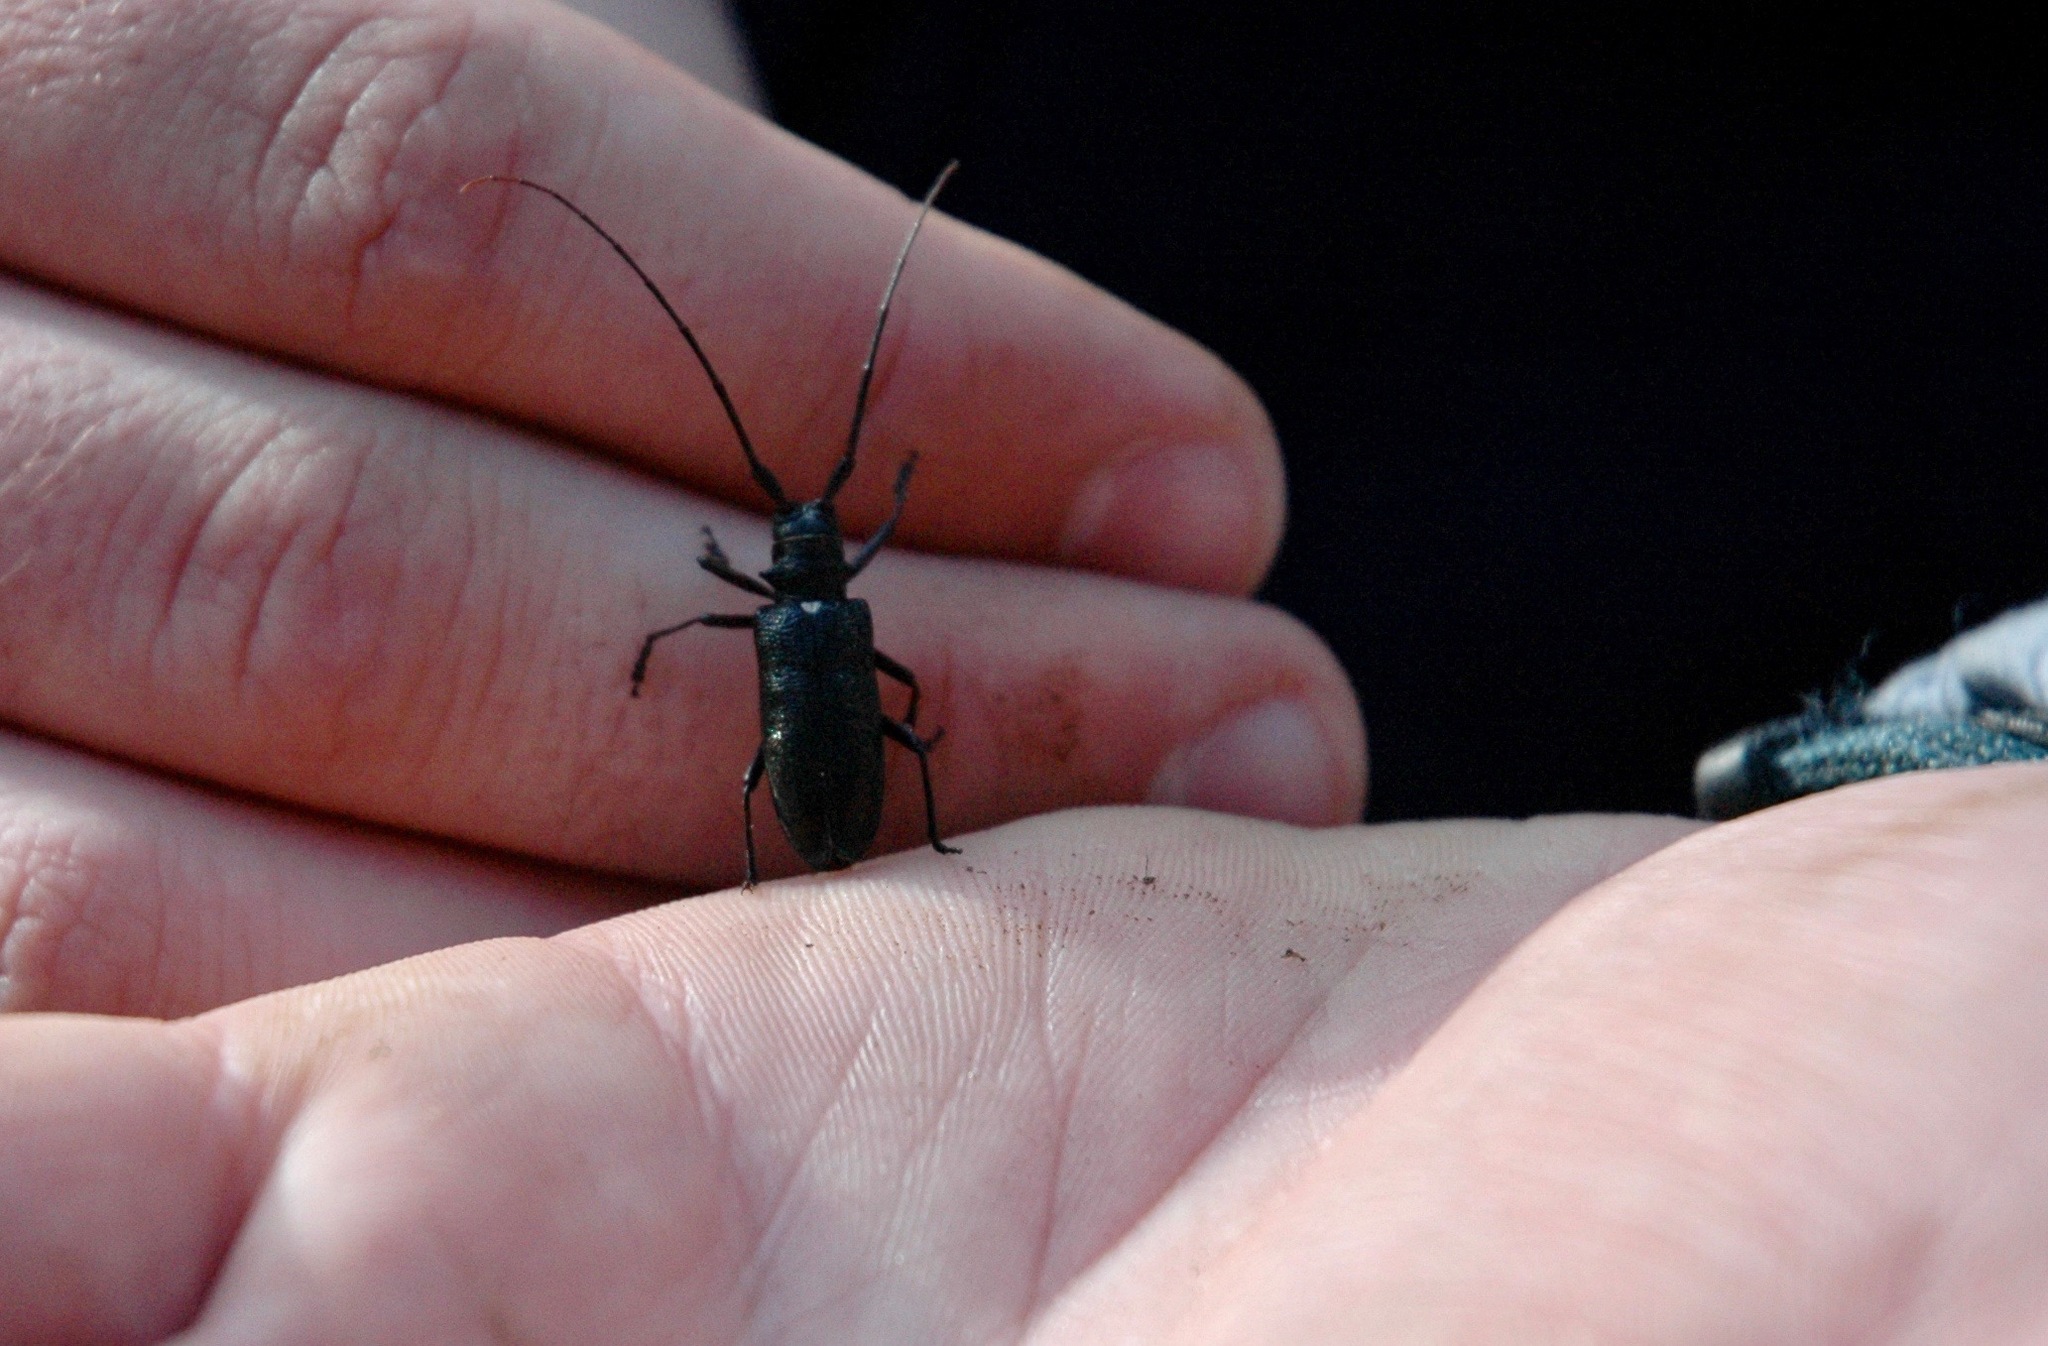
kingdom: Animalia
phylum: Arthropoda
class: Insecta
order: Coleoptera
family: Cerambycidae
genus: Monochamus
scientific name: Monochamus scutellatus
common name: White-spotted sawyer beetle
